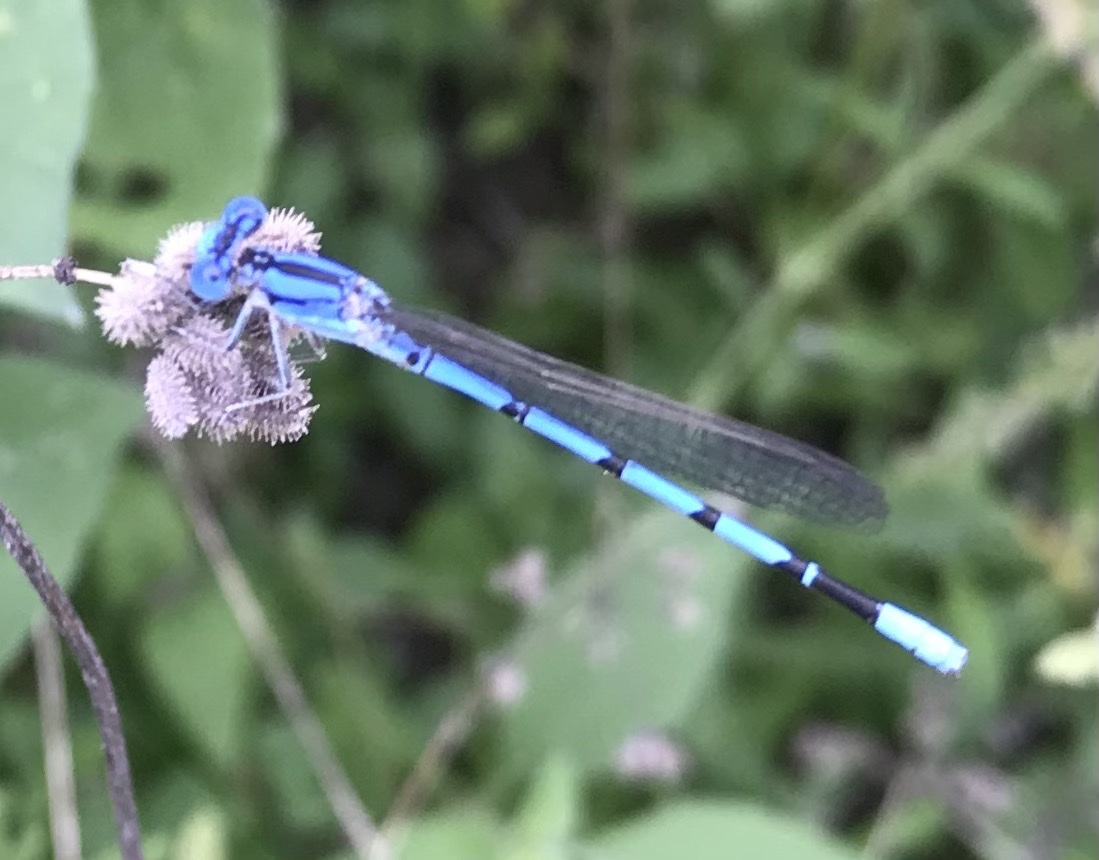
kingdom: Animalia
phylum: Arthropoda
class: Insecta
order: Odonata
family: Coenagrionidae
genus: Argia
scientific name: Argia nahuana
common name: Aztec dancer
